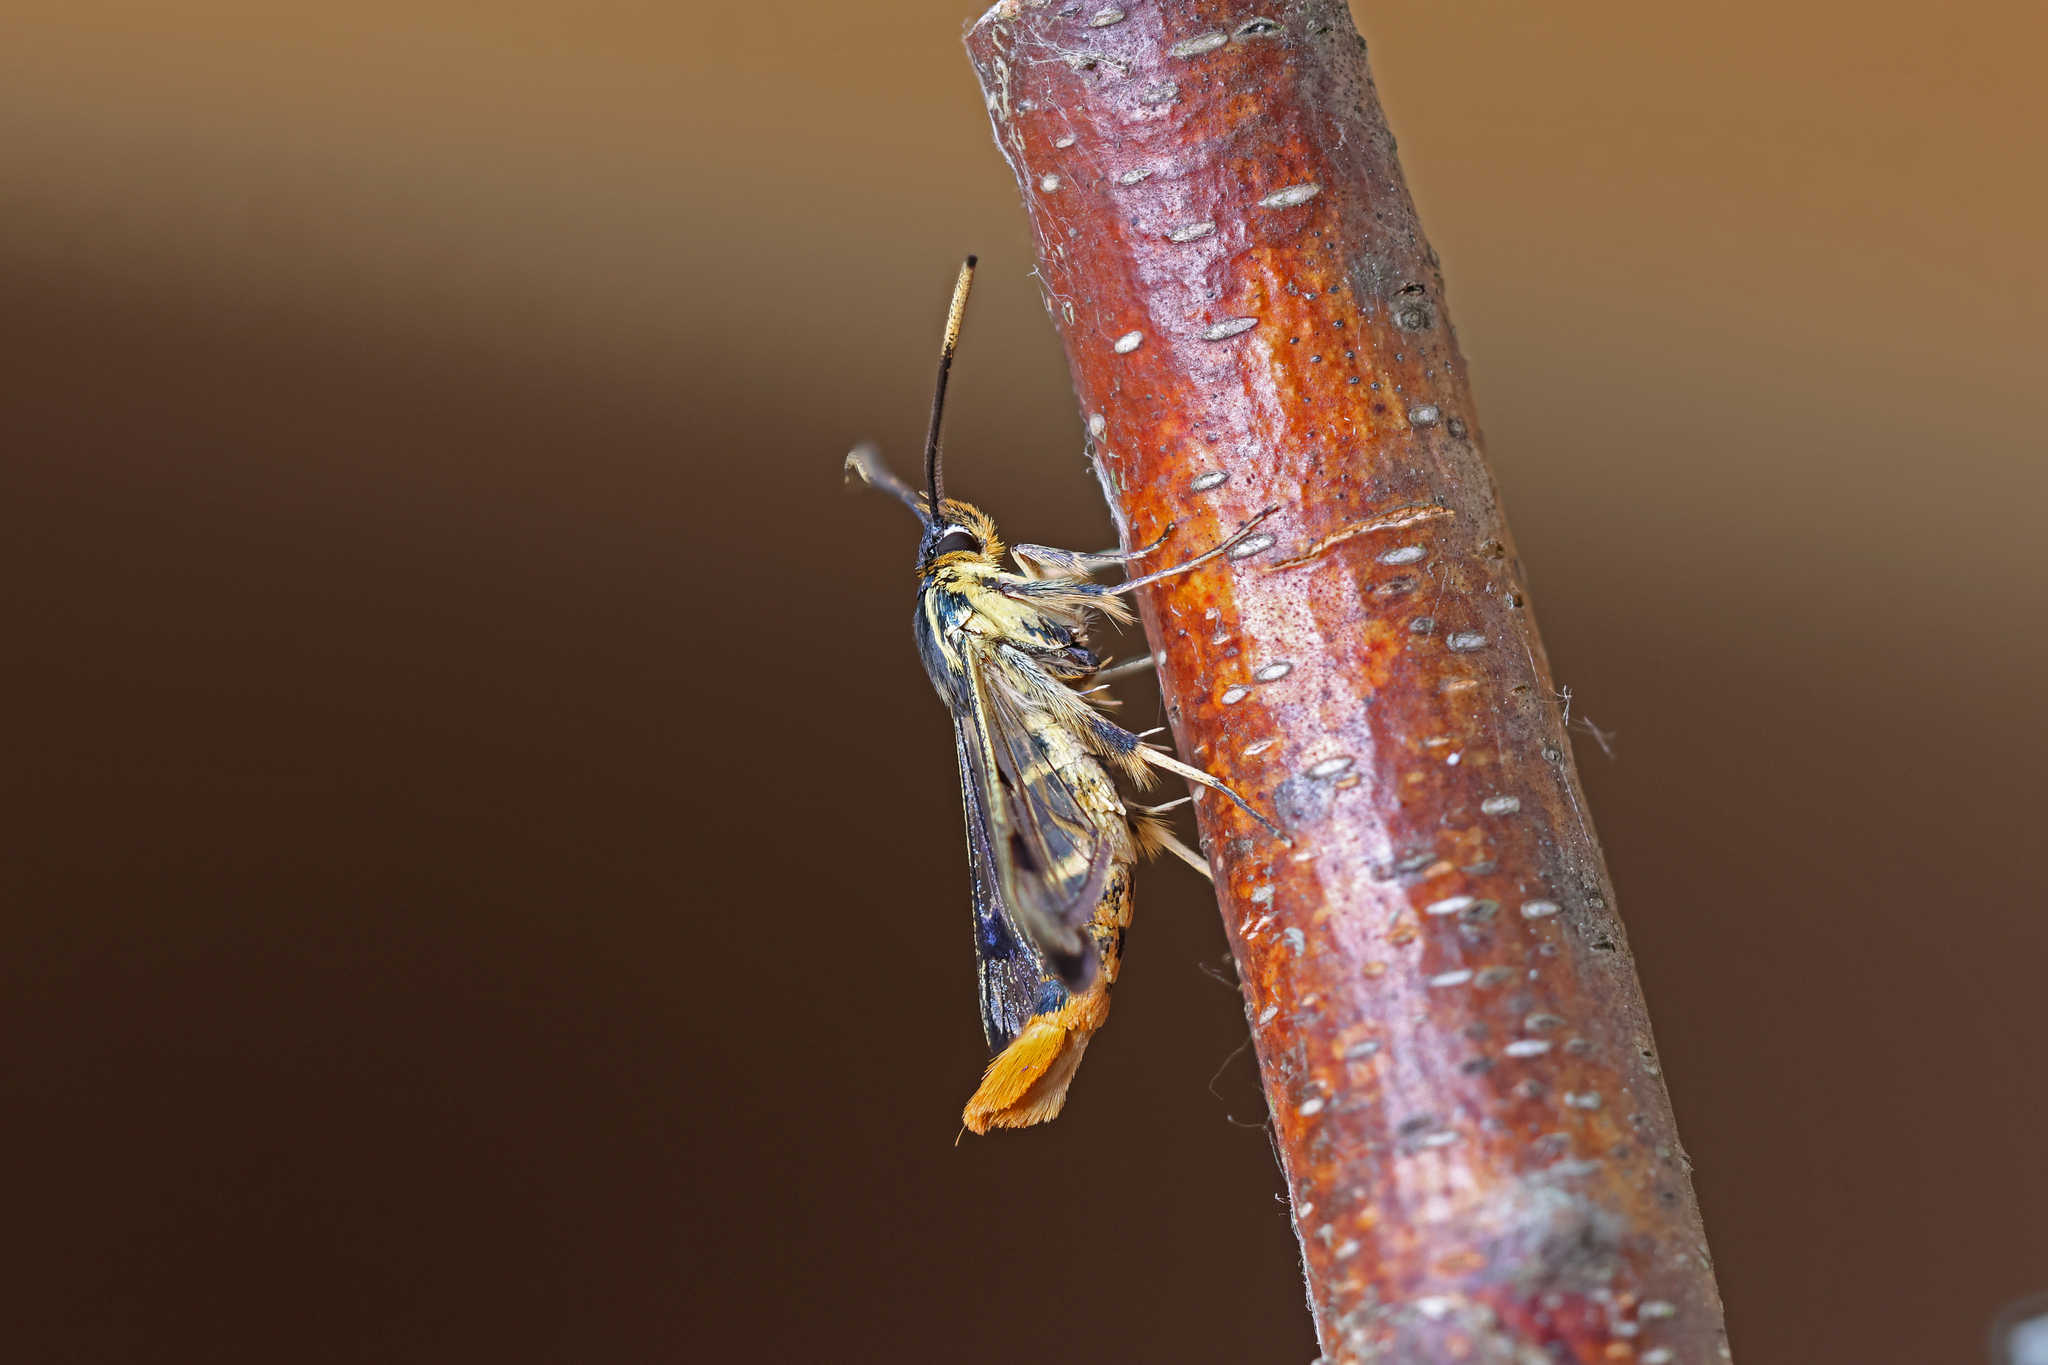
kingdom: Animalia
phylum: Arthropoda
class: Insecta
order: Lepidoptera
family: Sesiidae
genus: Synanthedon
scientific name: Synanthedon scoliaeformis
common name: Welsh clearwing
